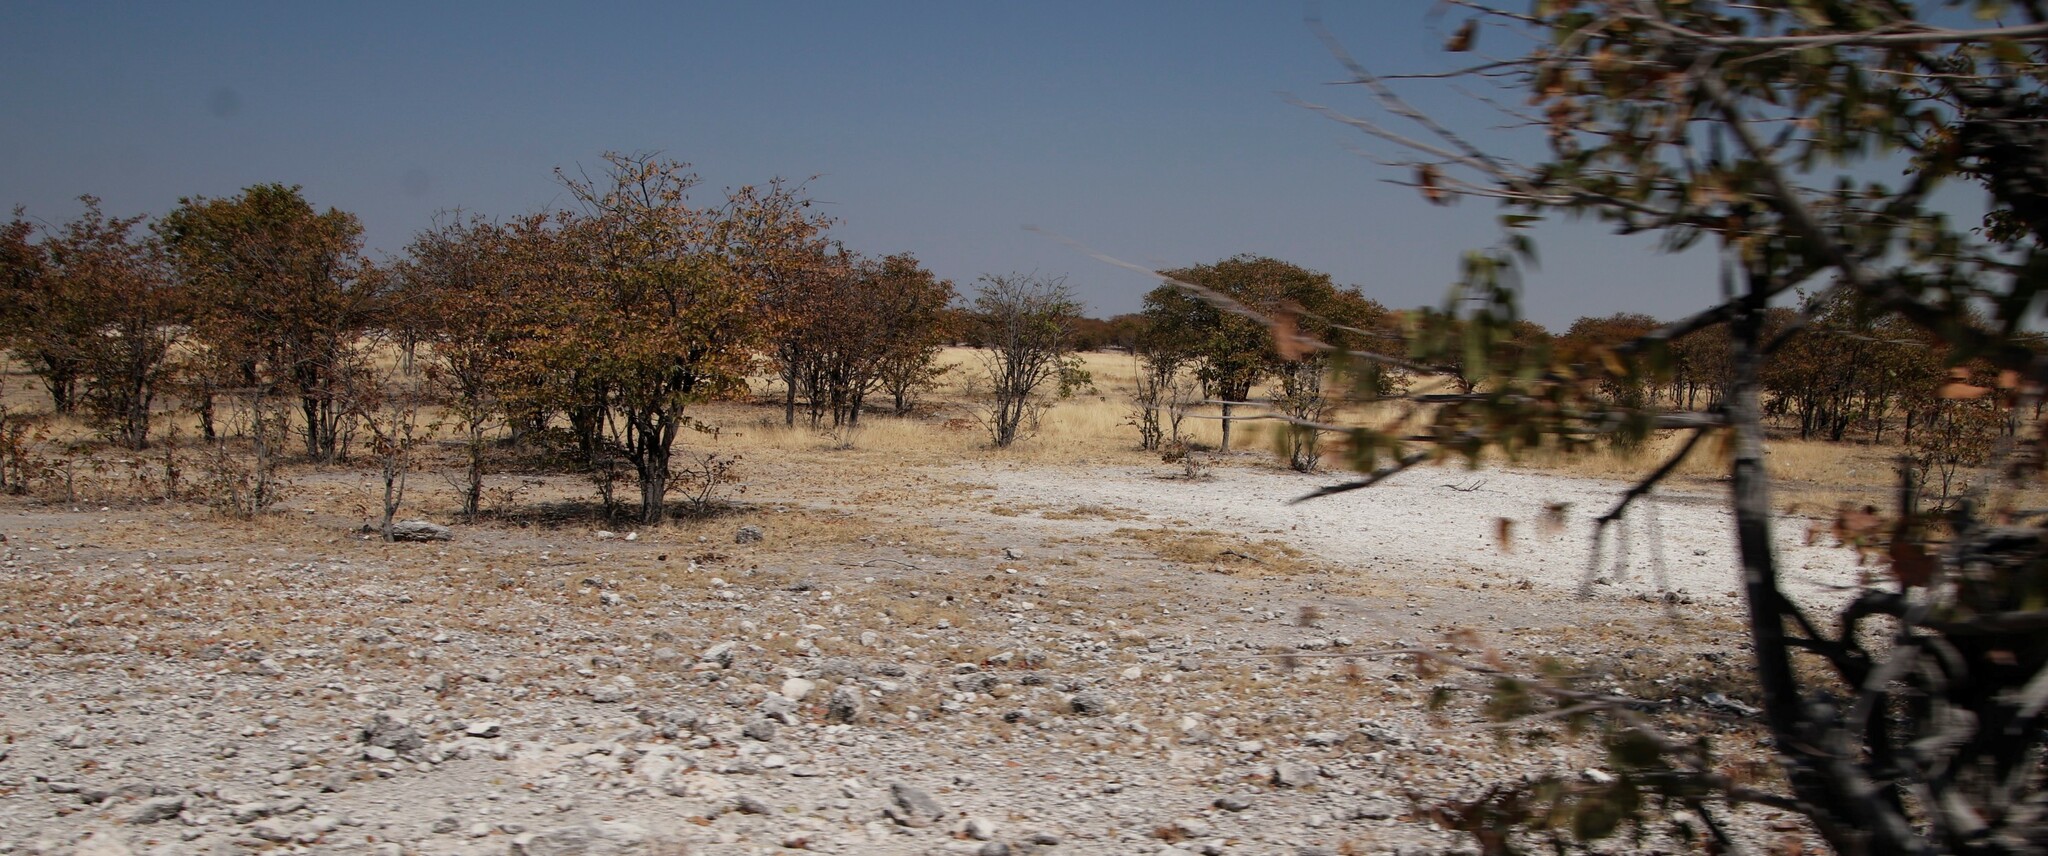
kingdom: Plantae
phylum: Tracheophyta
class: Magnoliopsida
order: Fabales
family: Fabaceae
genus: Colophospermum
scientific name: Colophospermum mopane
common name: Mopane
